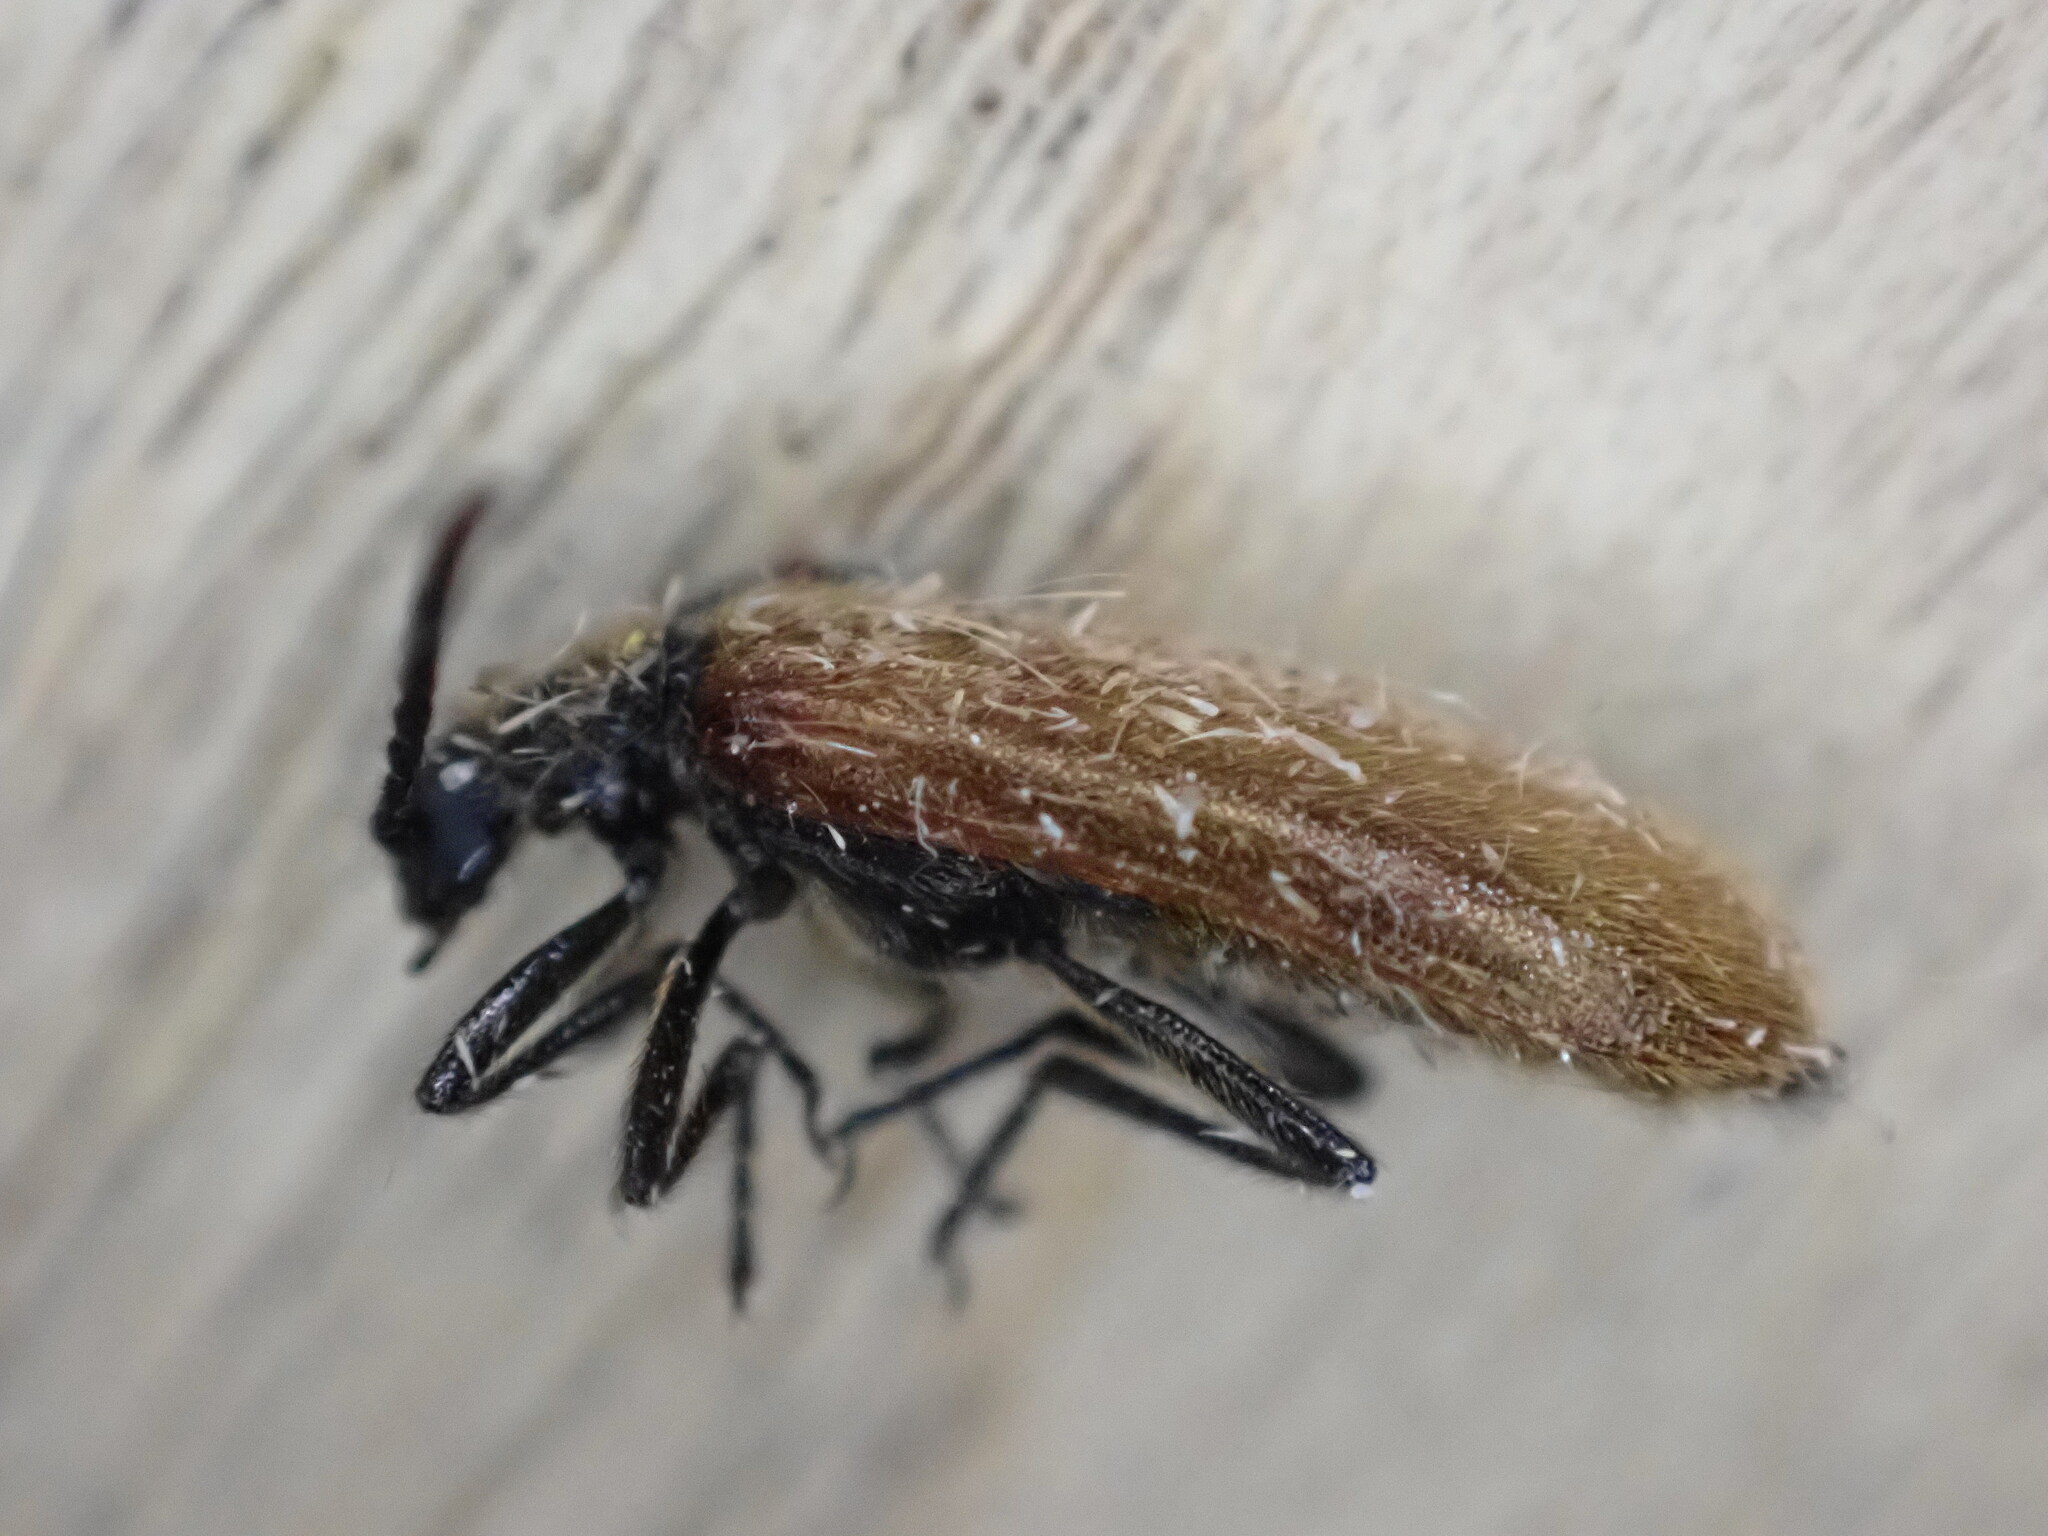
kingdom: Animalia
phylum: Arthropoda
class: Insecta
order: Coleoptera
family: Tenebrionidae
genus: Lagria
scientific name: Lagria hirta
